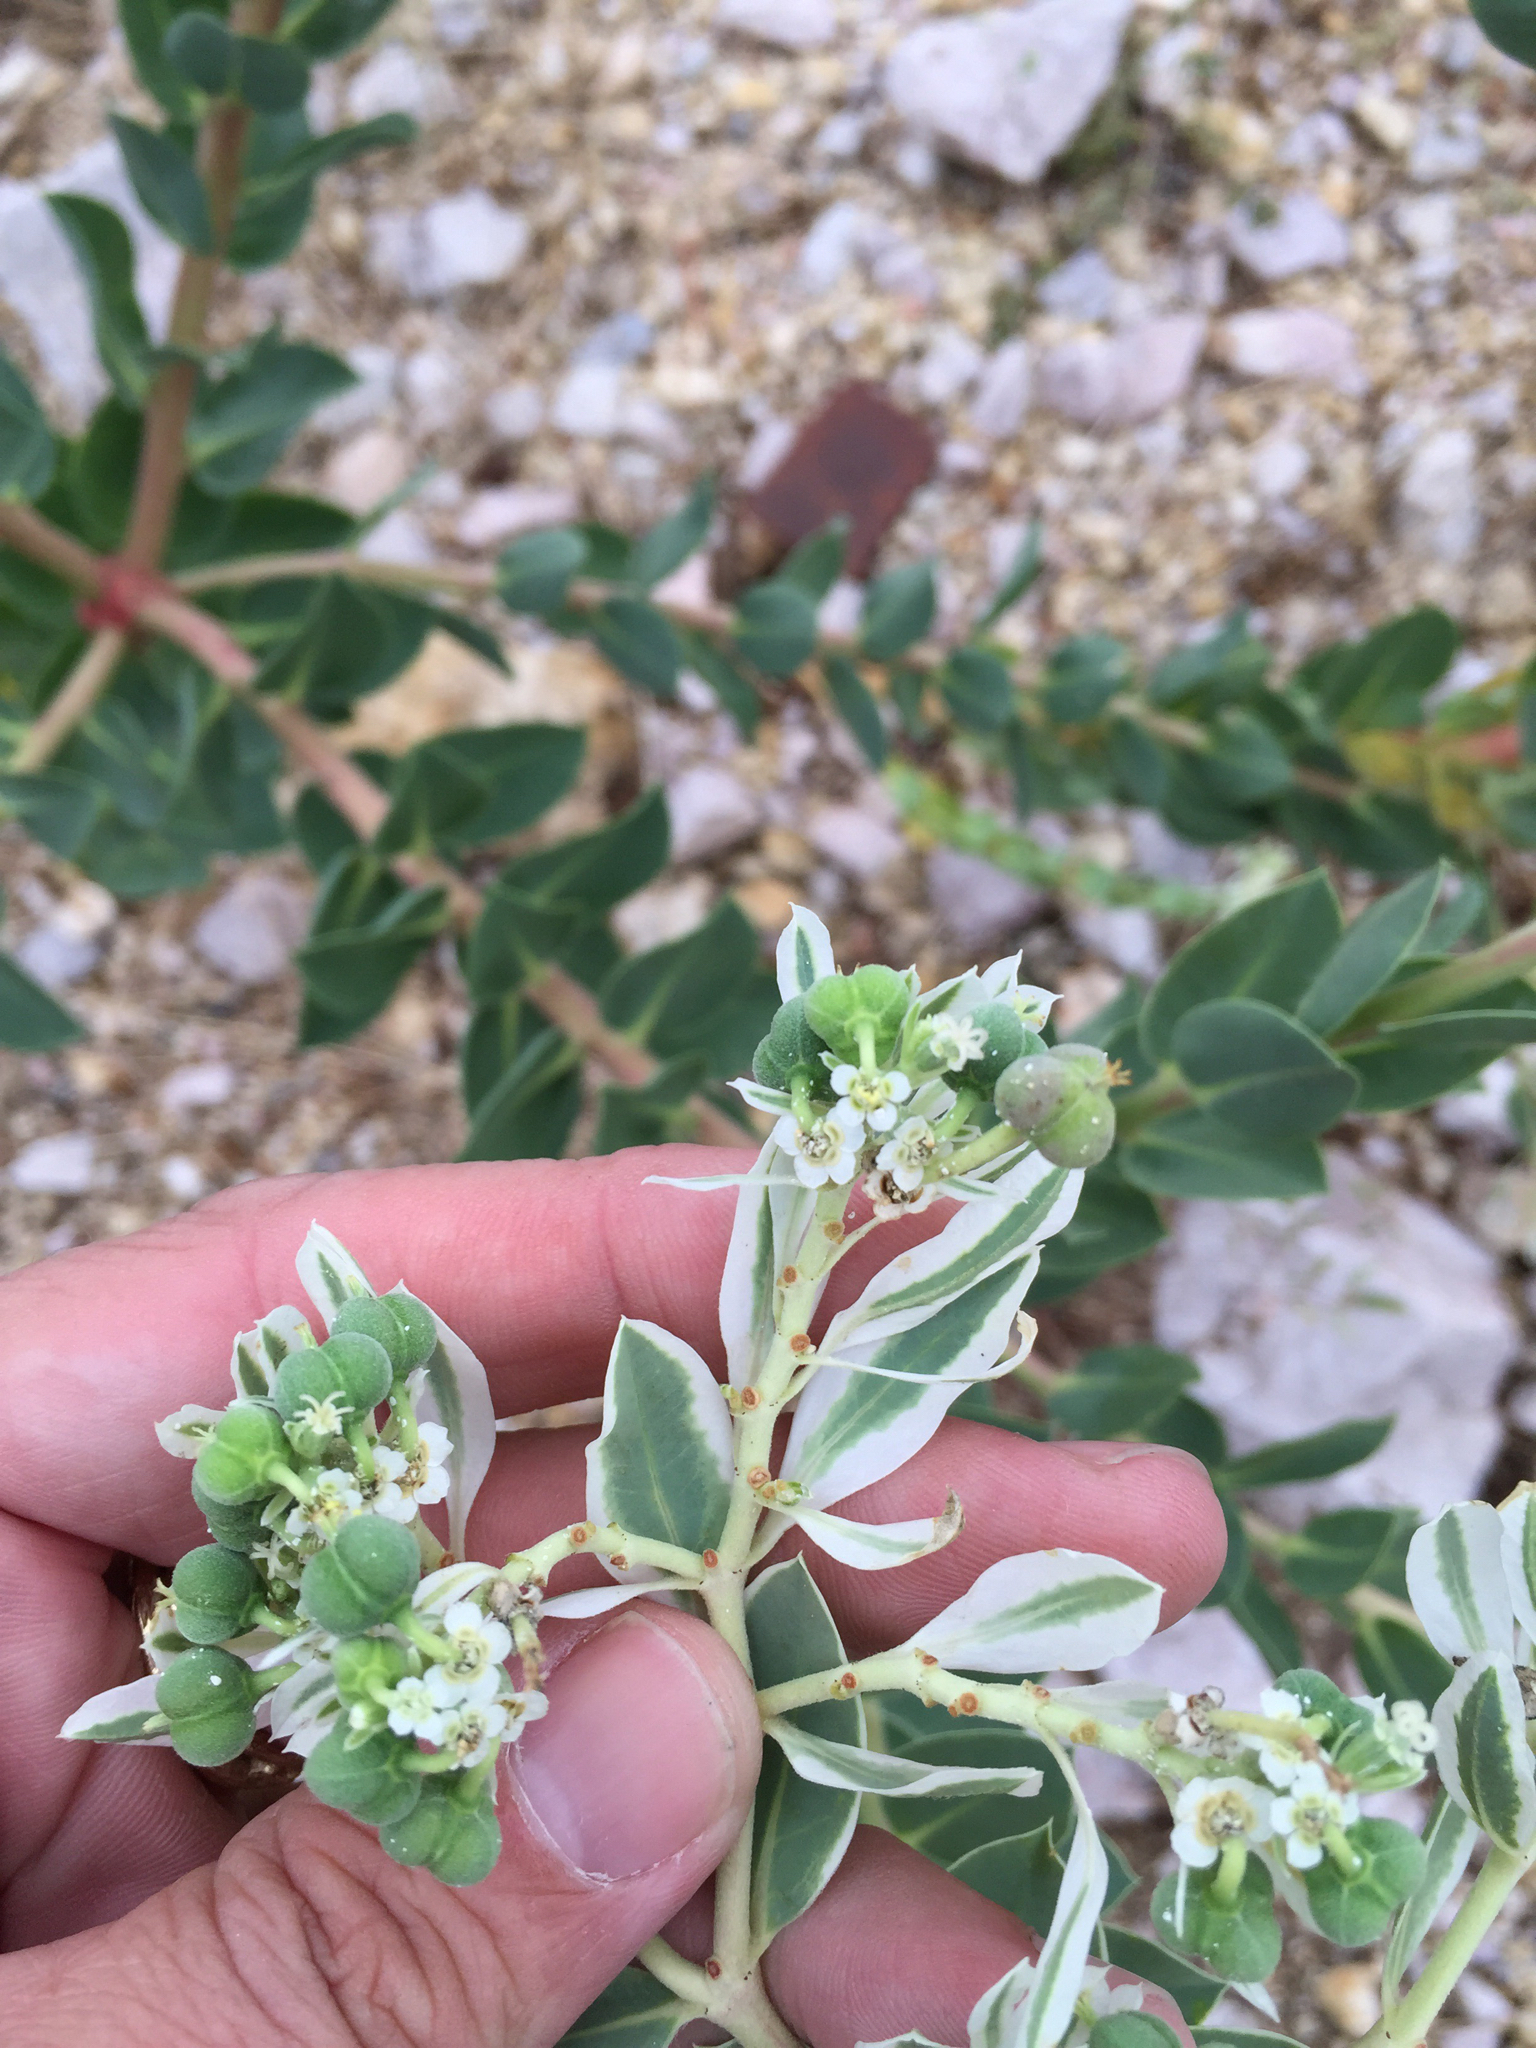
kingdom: Plantae
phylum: Tracheophyta
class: Magnoliopsida
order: Malpighiales
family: Euphorbiaceae
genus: Euphorbia
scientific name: Euphorbia marginata
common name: Ghostweed
